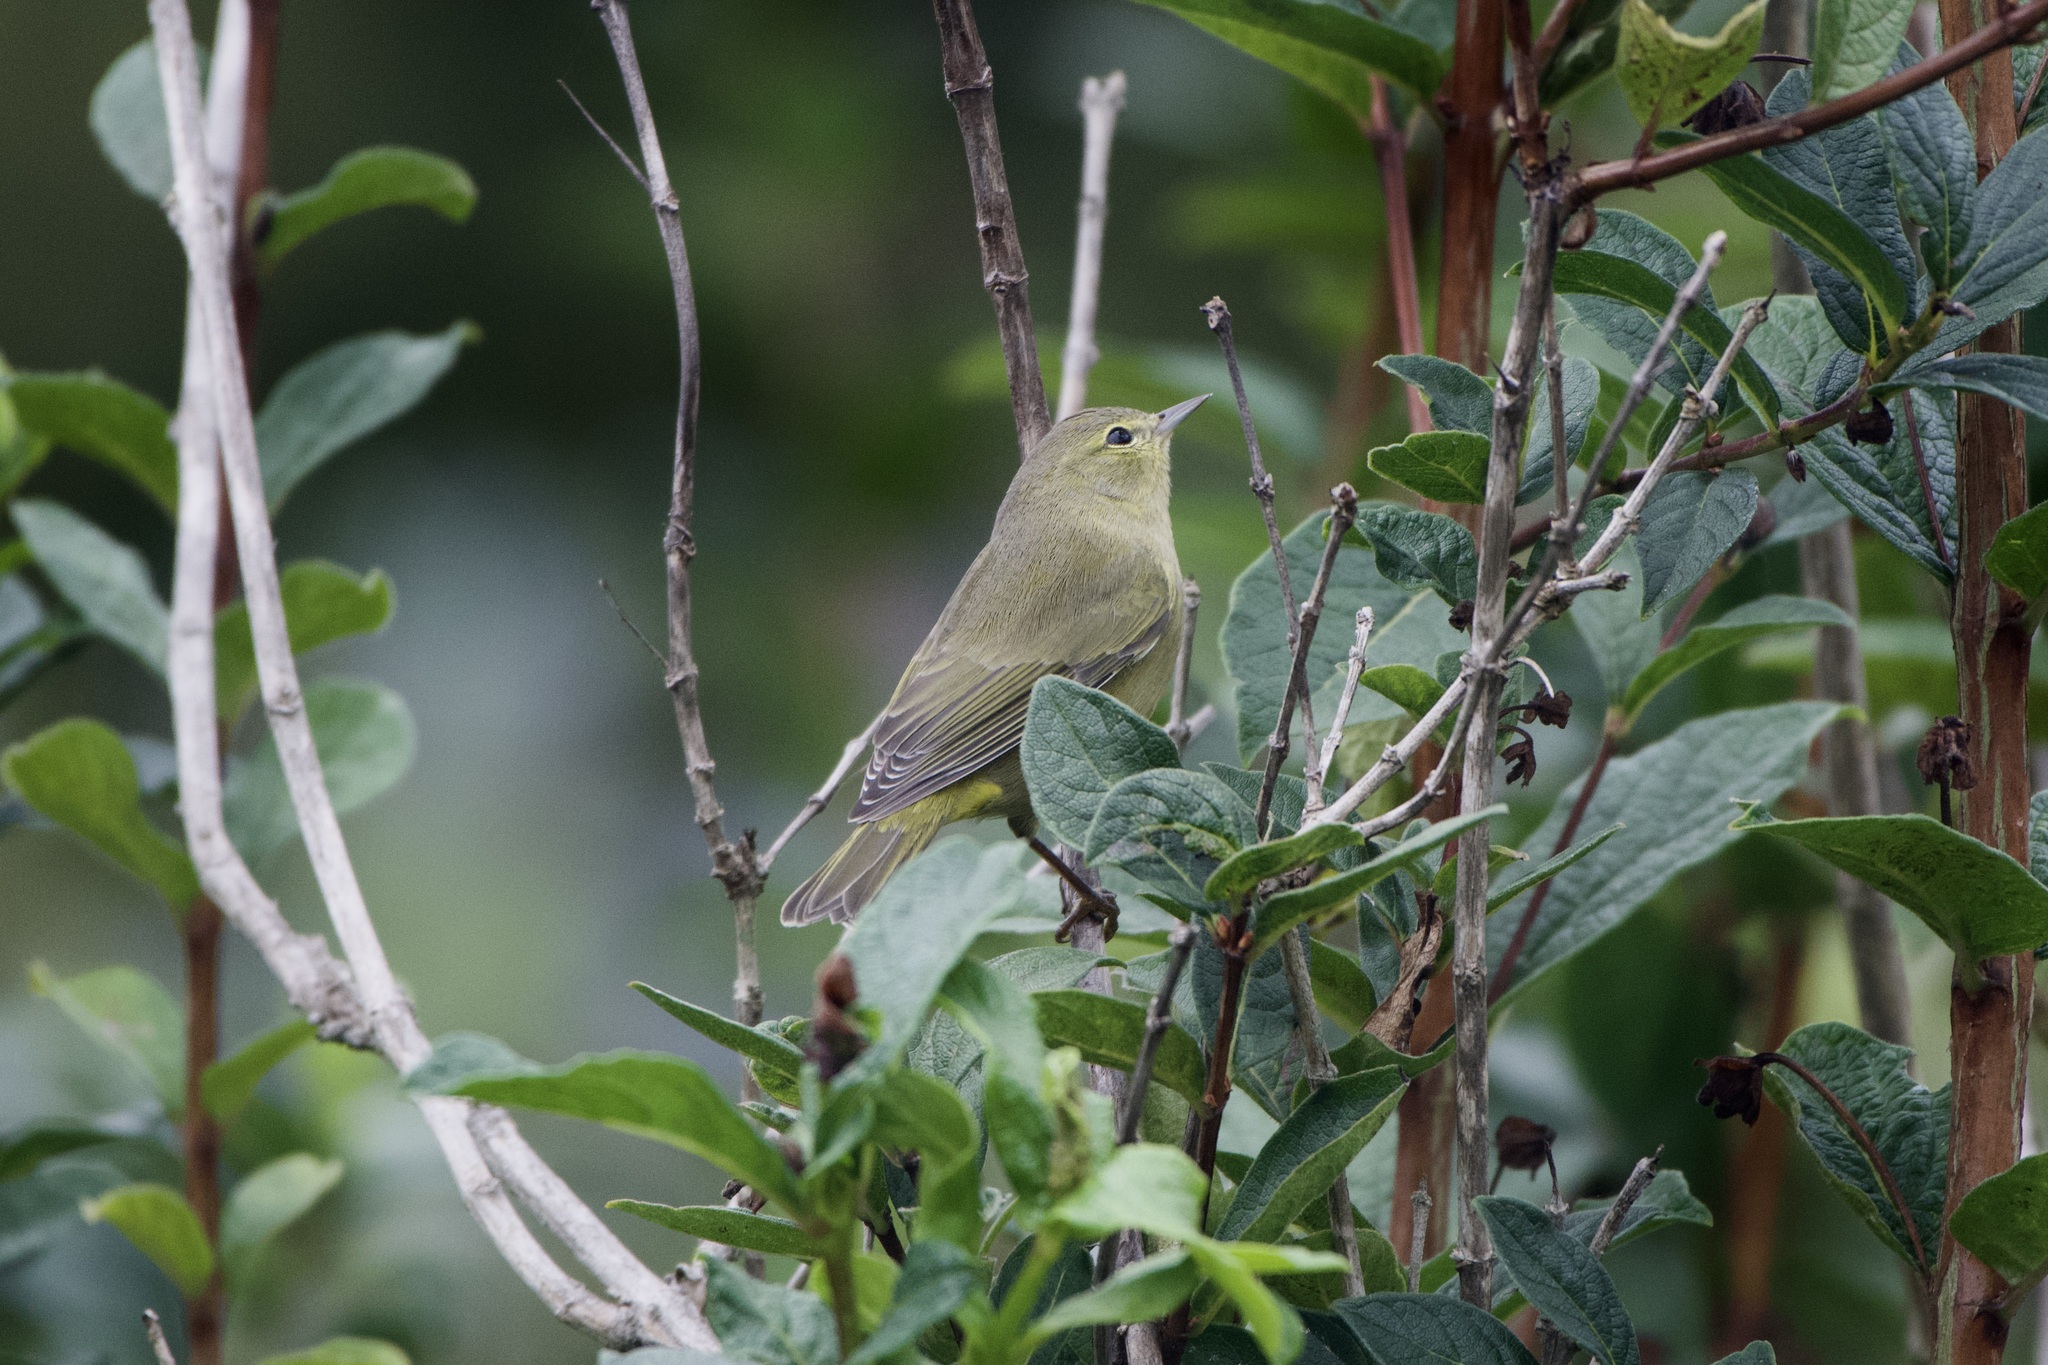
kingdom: Animalia
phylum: Chordata
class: Aves
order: Passeriformes
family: Parulidae
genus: Leiothlypis
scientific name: Leiothlypis celata
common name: Orange-crowned warbler
